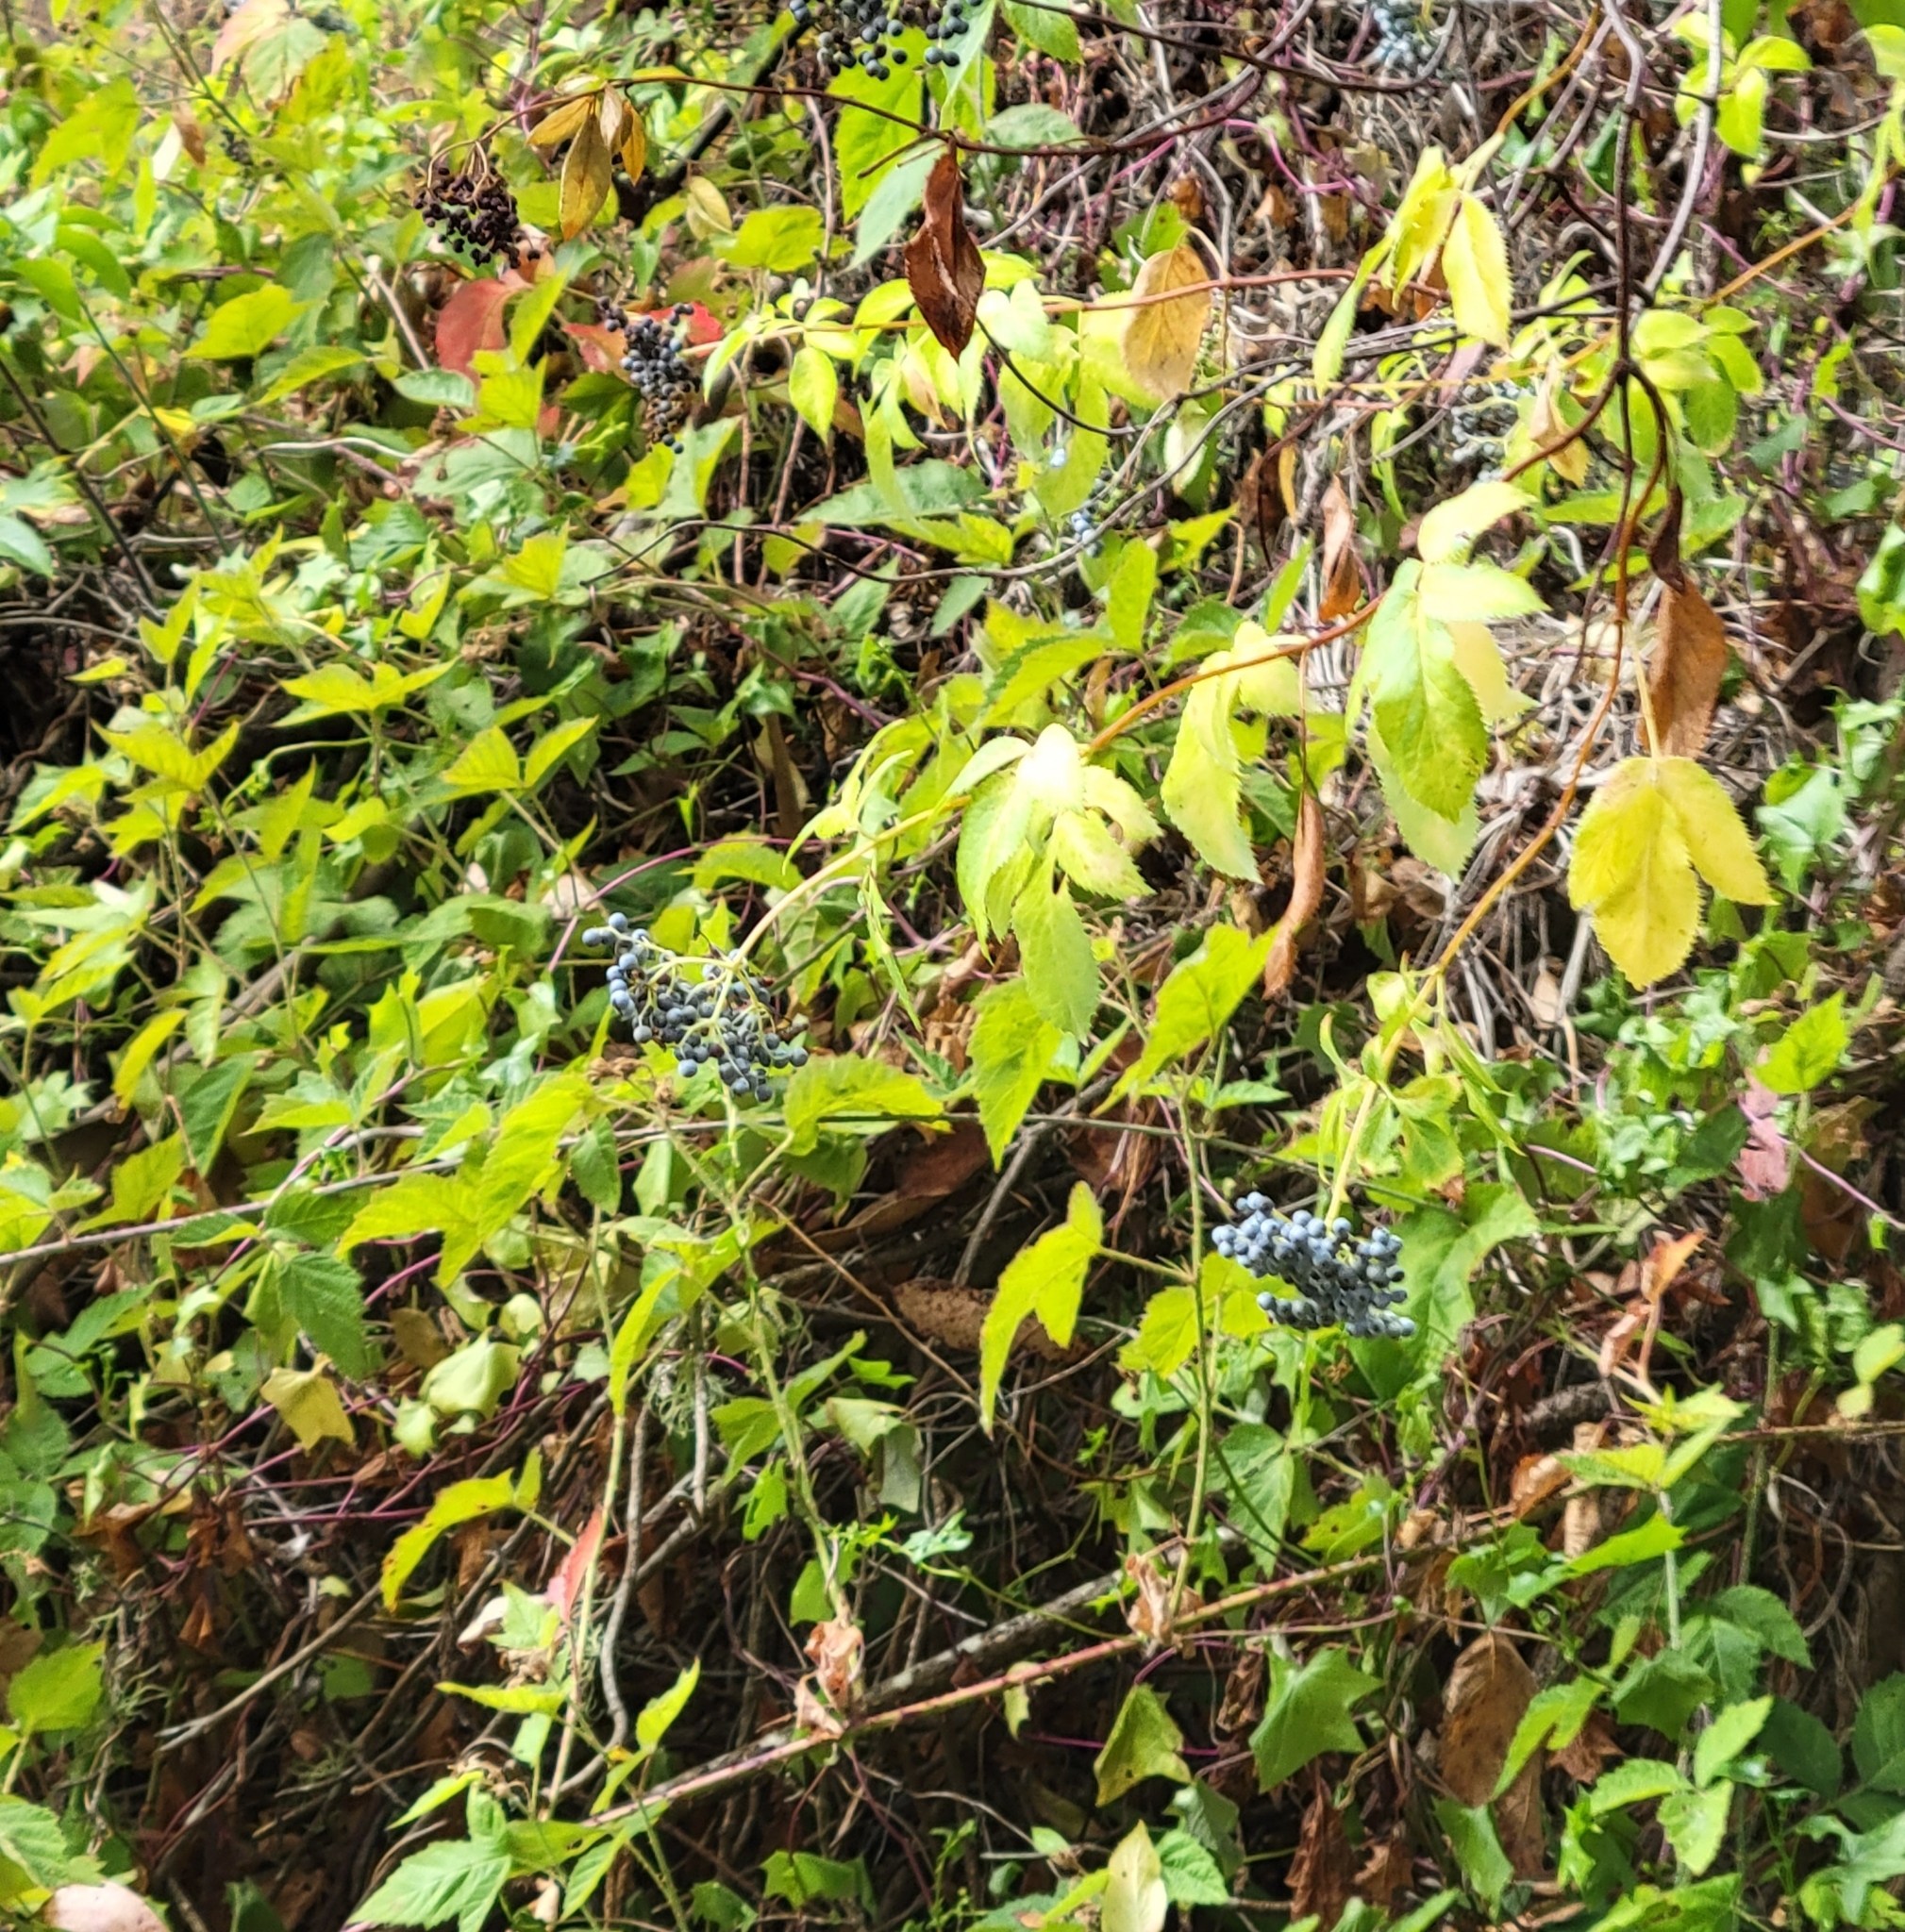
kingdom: Plantae
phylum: Tracheophyta
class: Magnoliopsida
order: Dipsacales
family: Viburnaceae
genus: Sambucus
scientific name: Sambucus cerulea
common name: Blue elder
